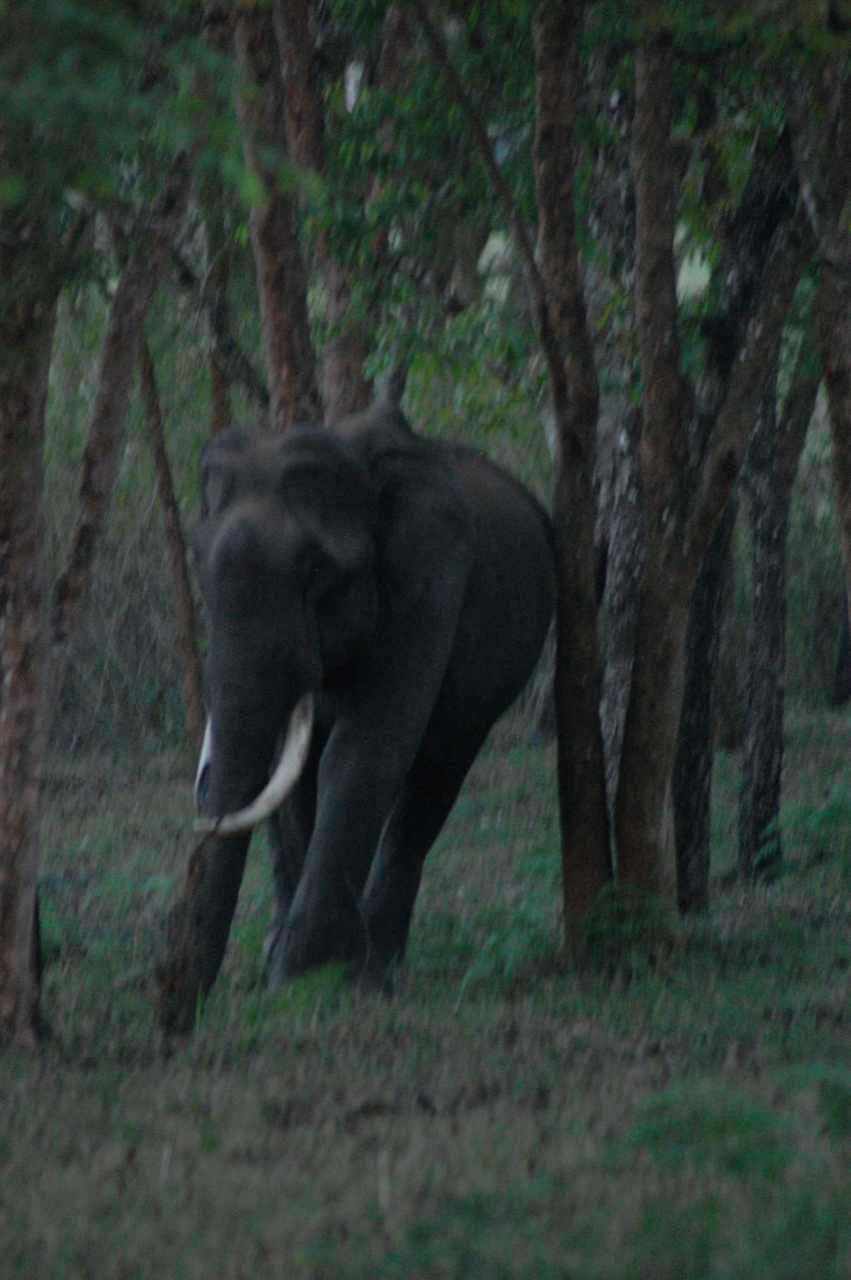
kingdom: Animalia
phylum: Chordata
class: Mammalia
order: Proboscidea
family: Elephantidae
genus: Elephas
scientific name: Elephas maximus
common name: Asian elephant
